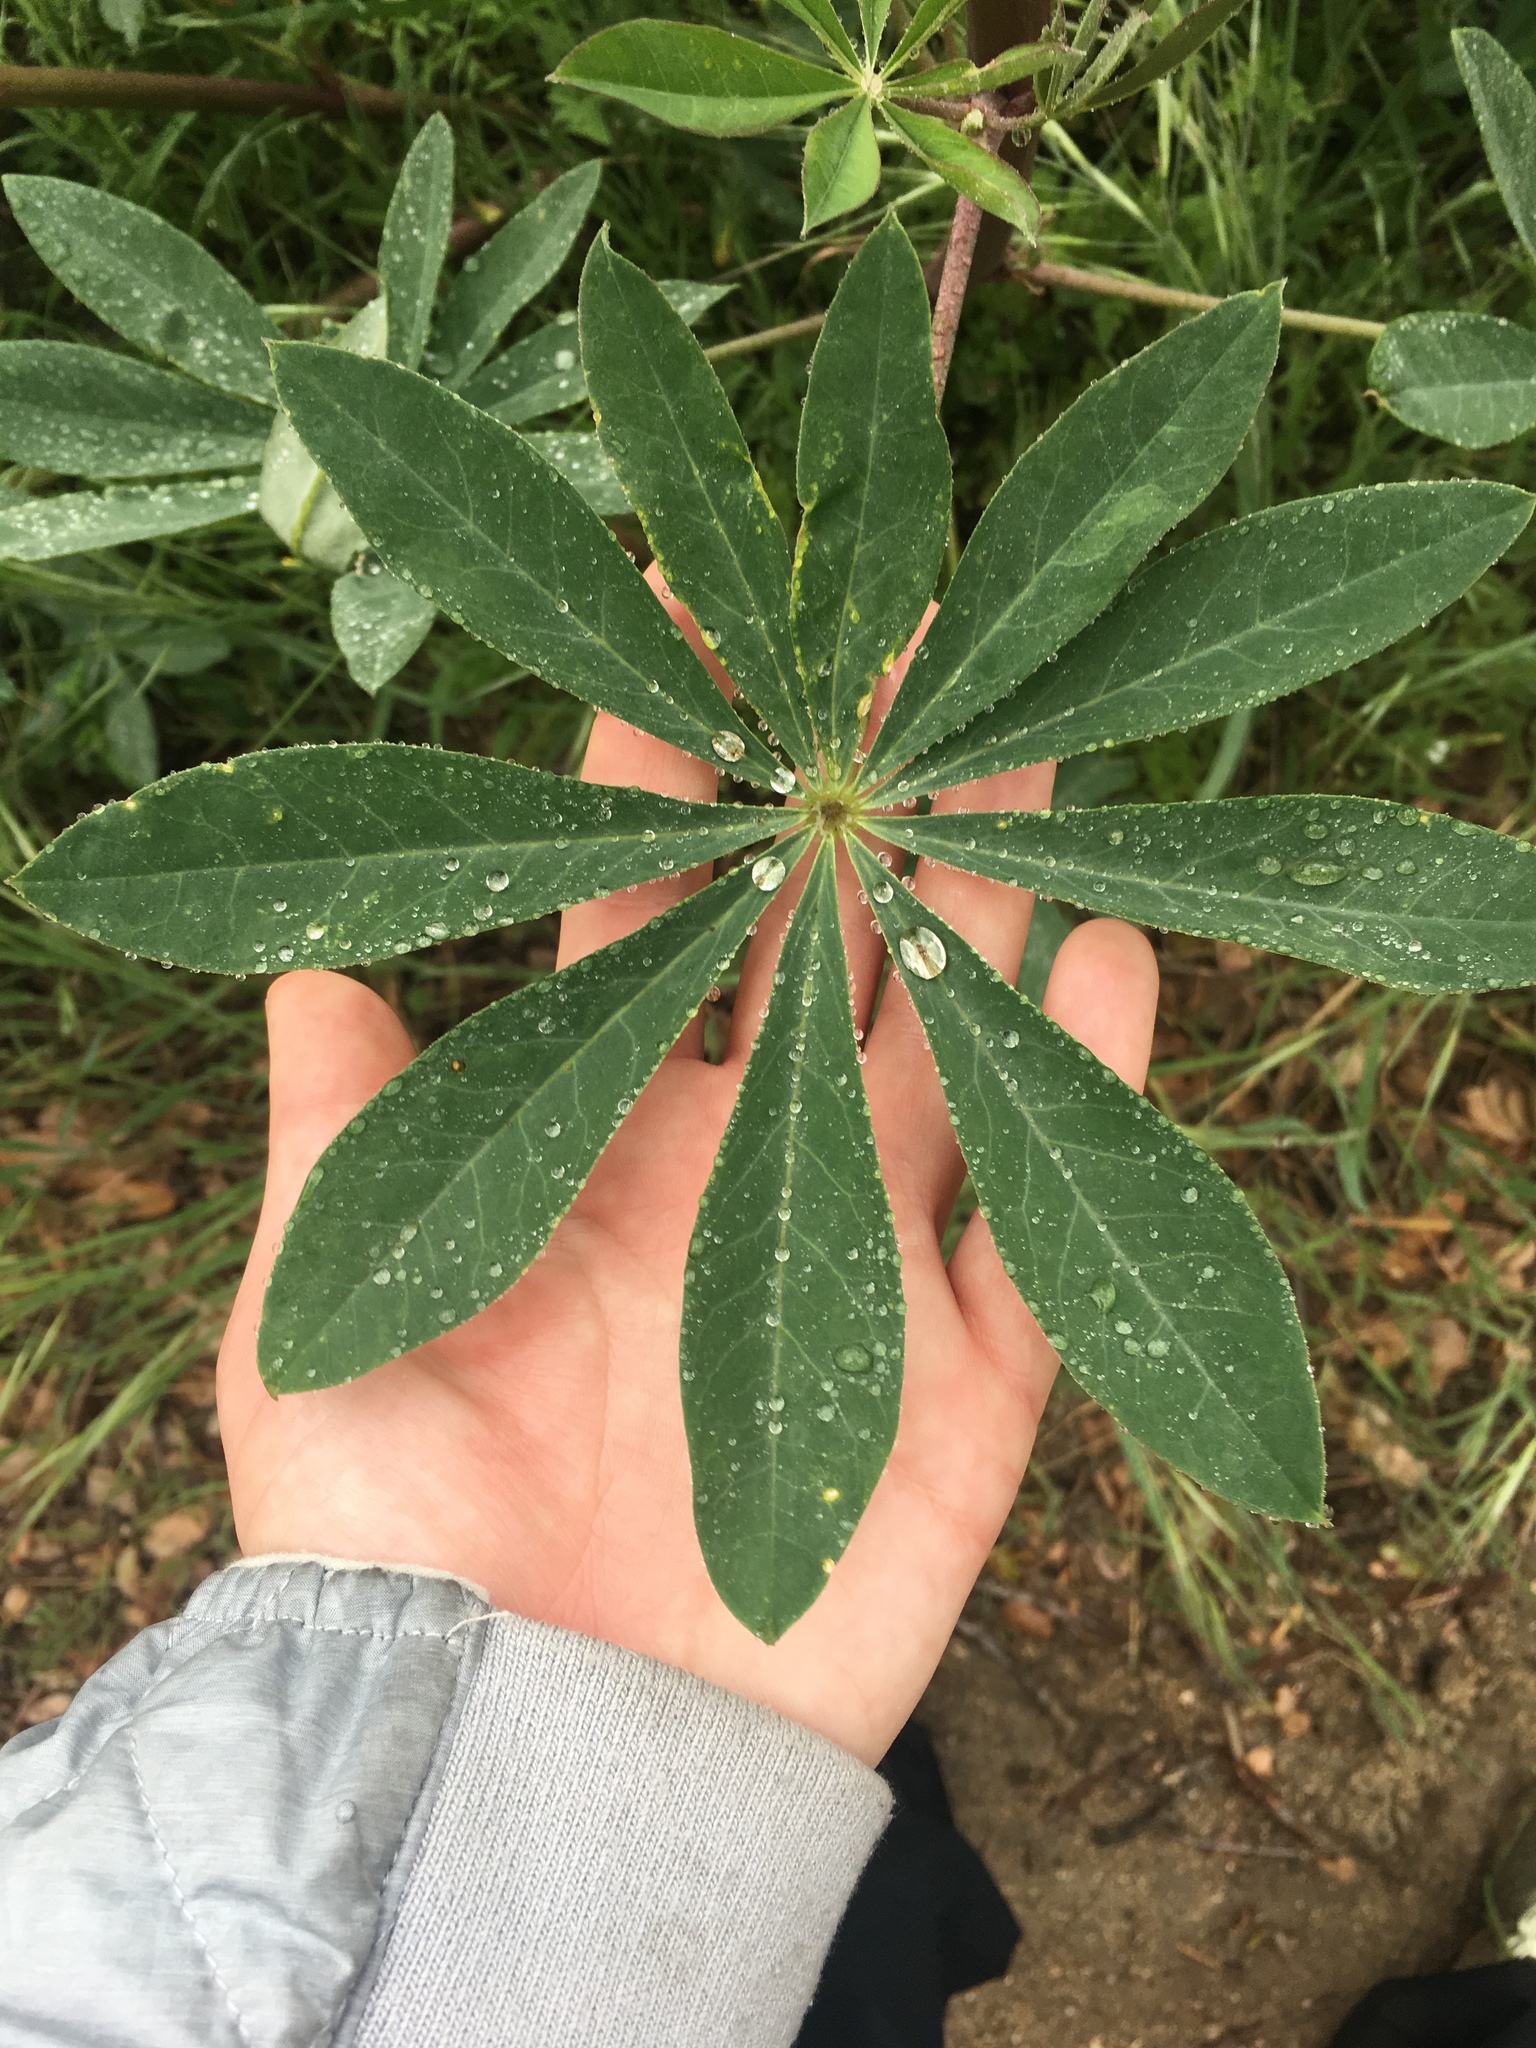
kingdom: Plantae
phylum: Tracheophyta
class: Magnoliopsida
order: Fabales
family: Fabaceae
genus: Lupinus
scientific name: Lupinus latifolius
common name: Broad-leaved lupine
